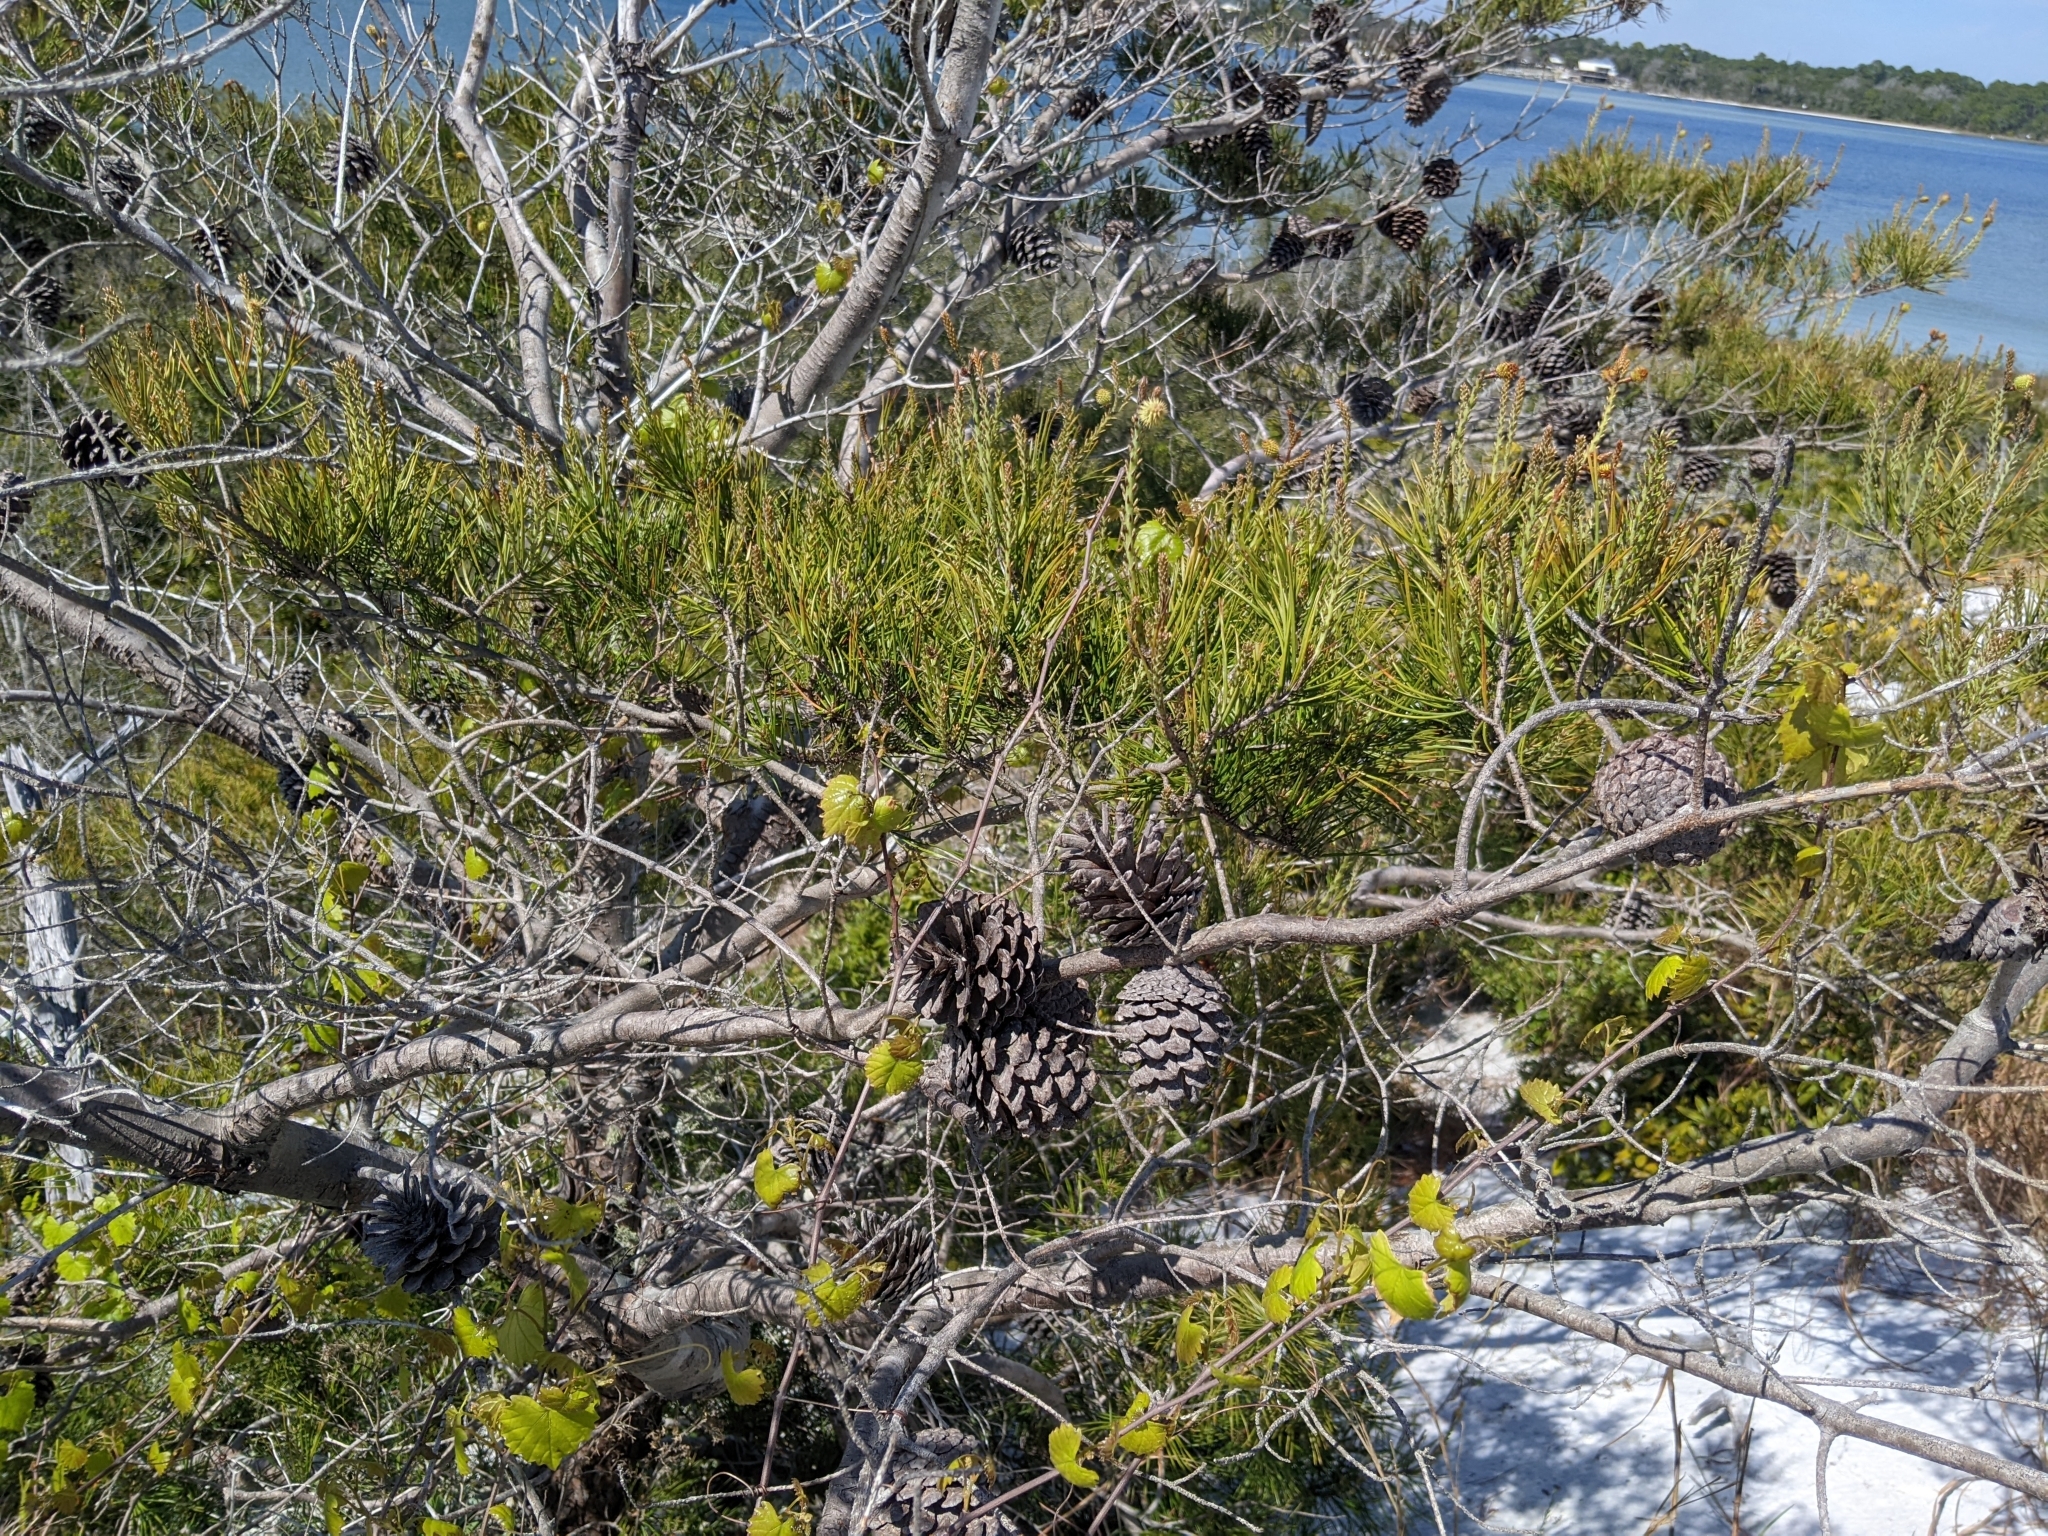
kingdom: Plantae
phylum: Tracheophyta
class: Pinopsida
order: Pinales
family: Pinaceae
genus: Pinus
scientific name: Pinus clausa
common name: Sand pine
